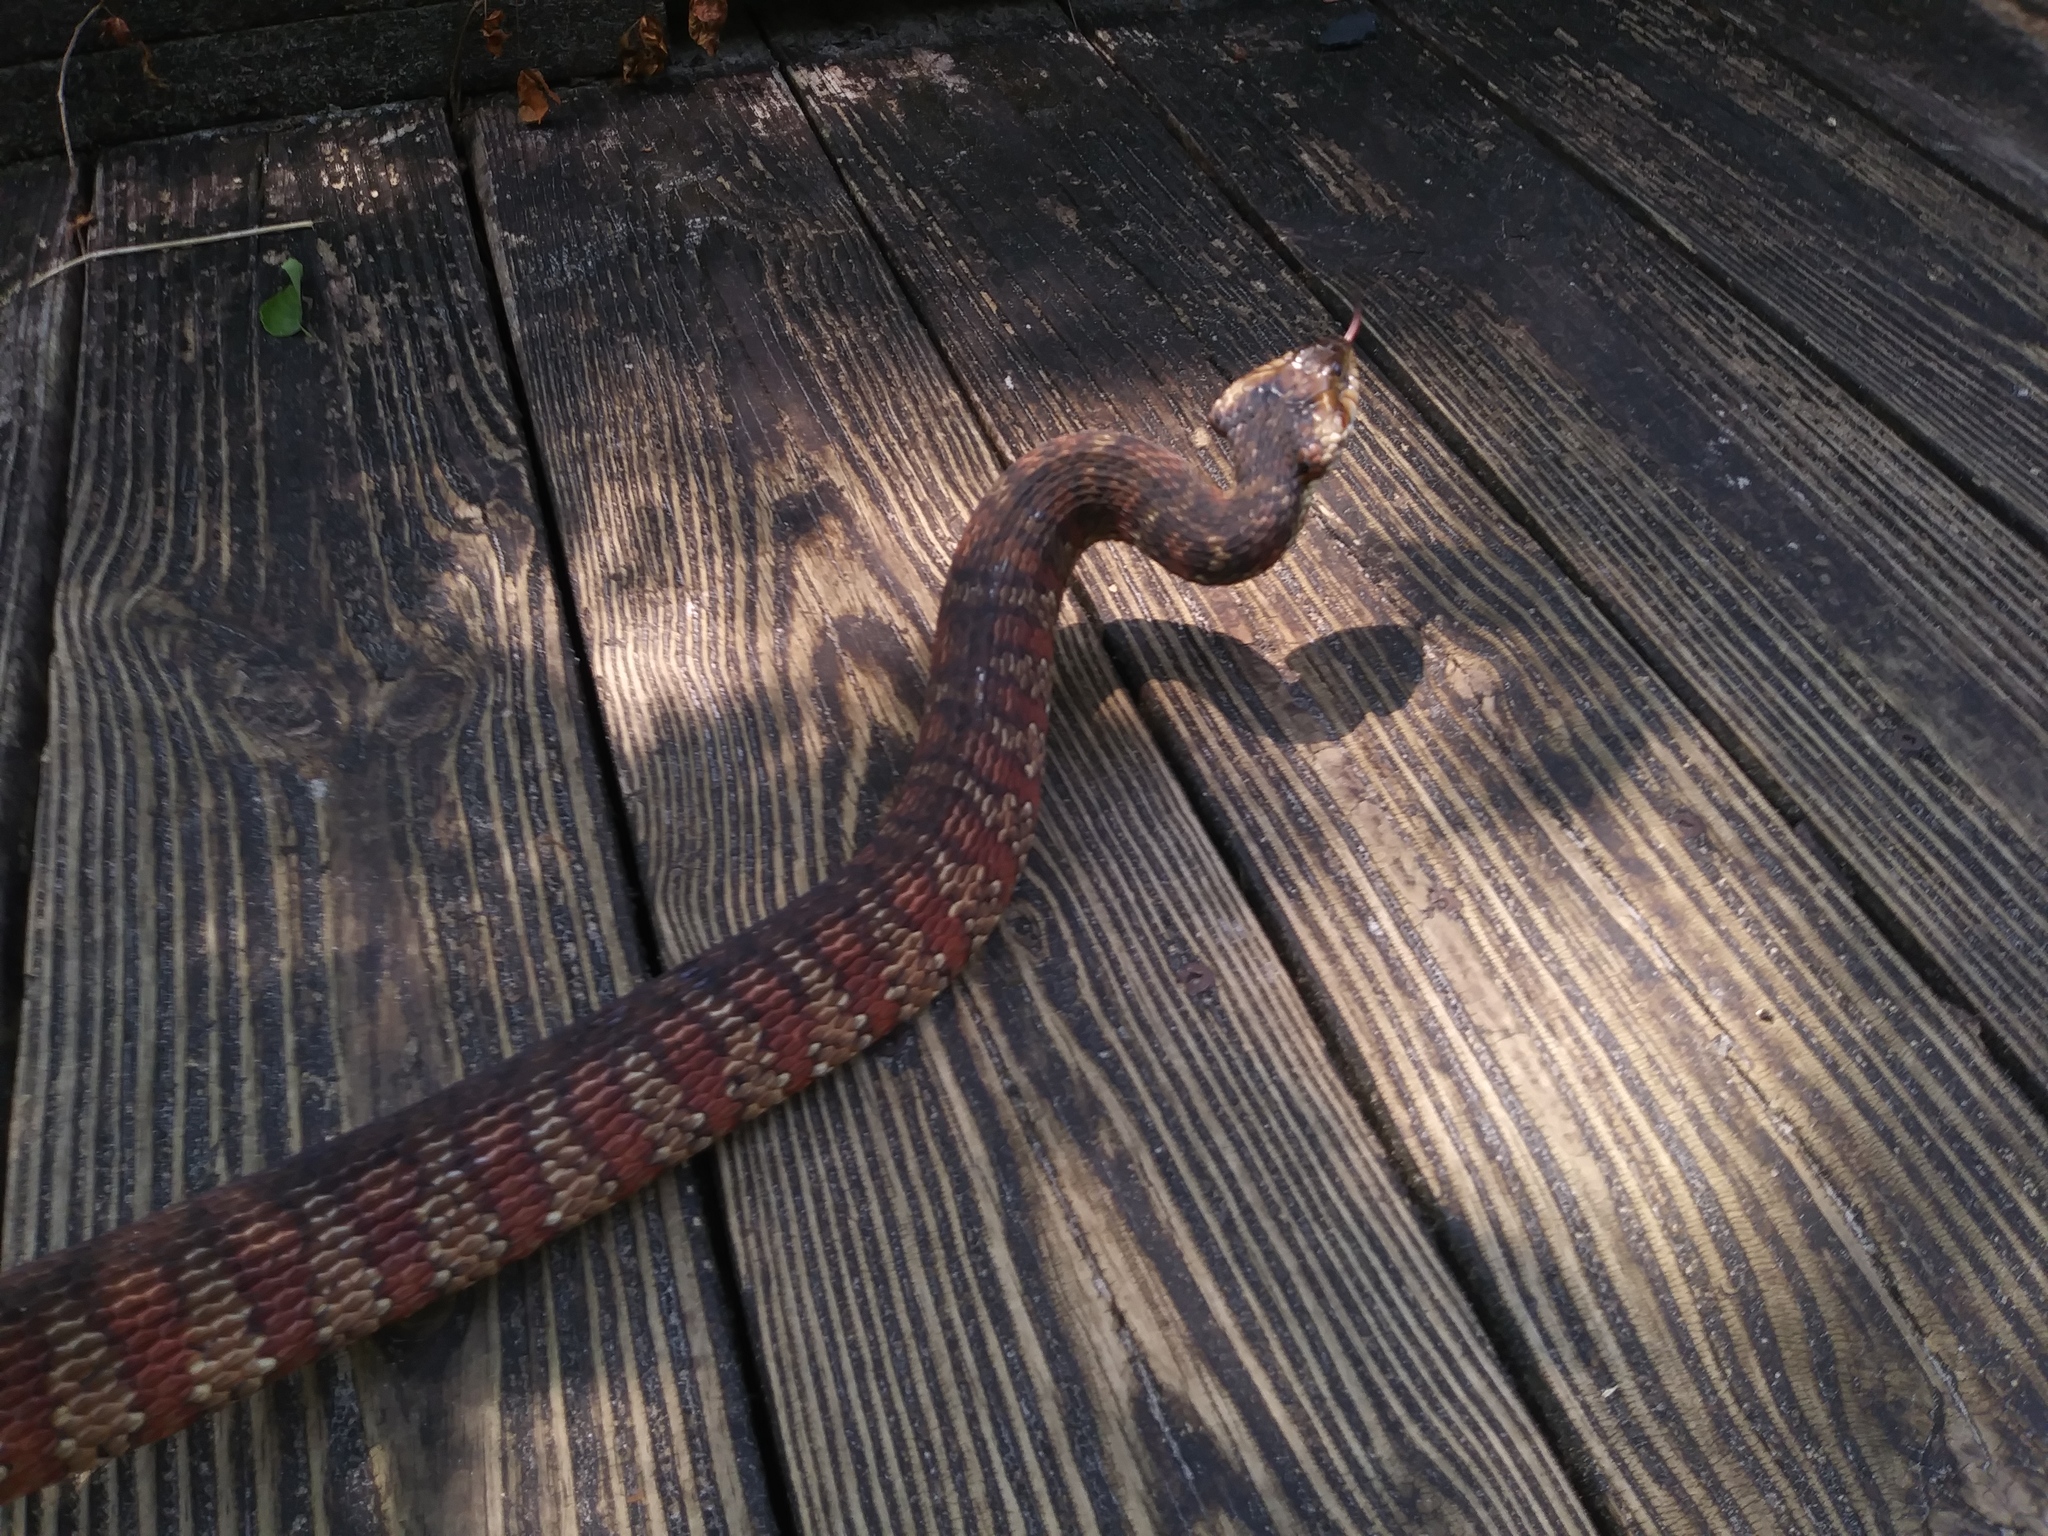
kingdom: Animalia
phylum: Chordata
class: Squamata
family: Colubridae
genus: Nerodia
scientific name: Nerodia fasciata
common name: Southern water snake
